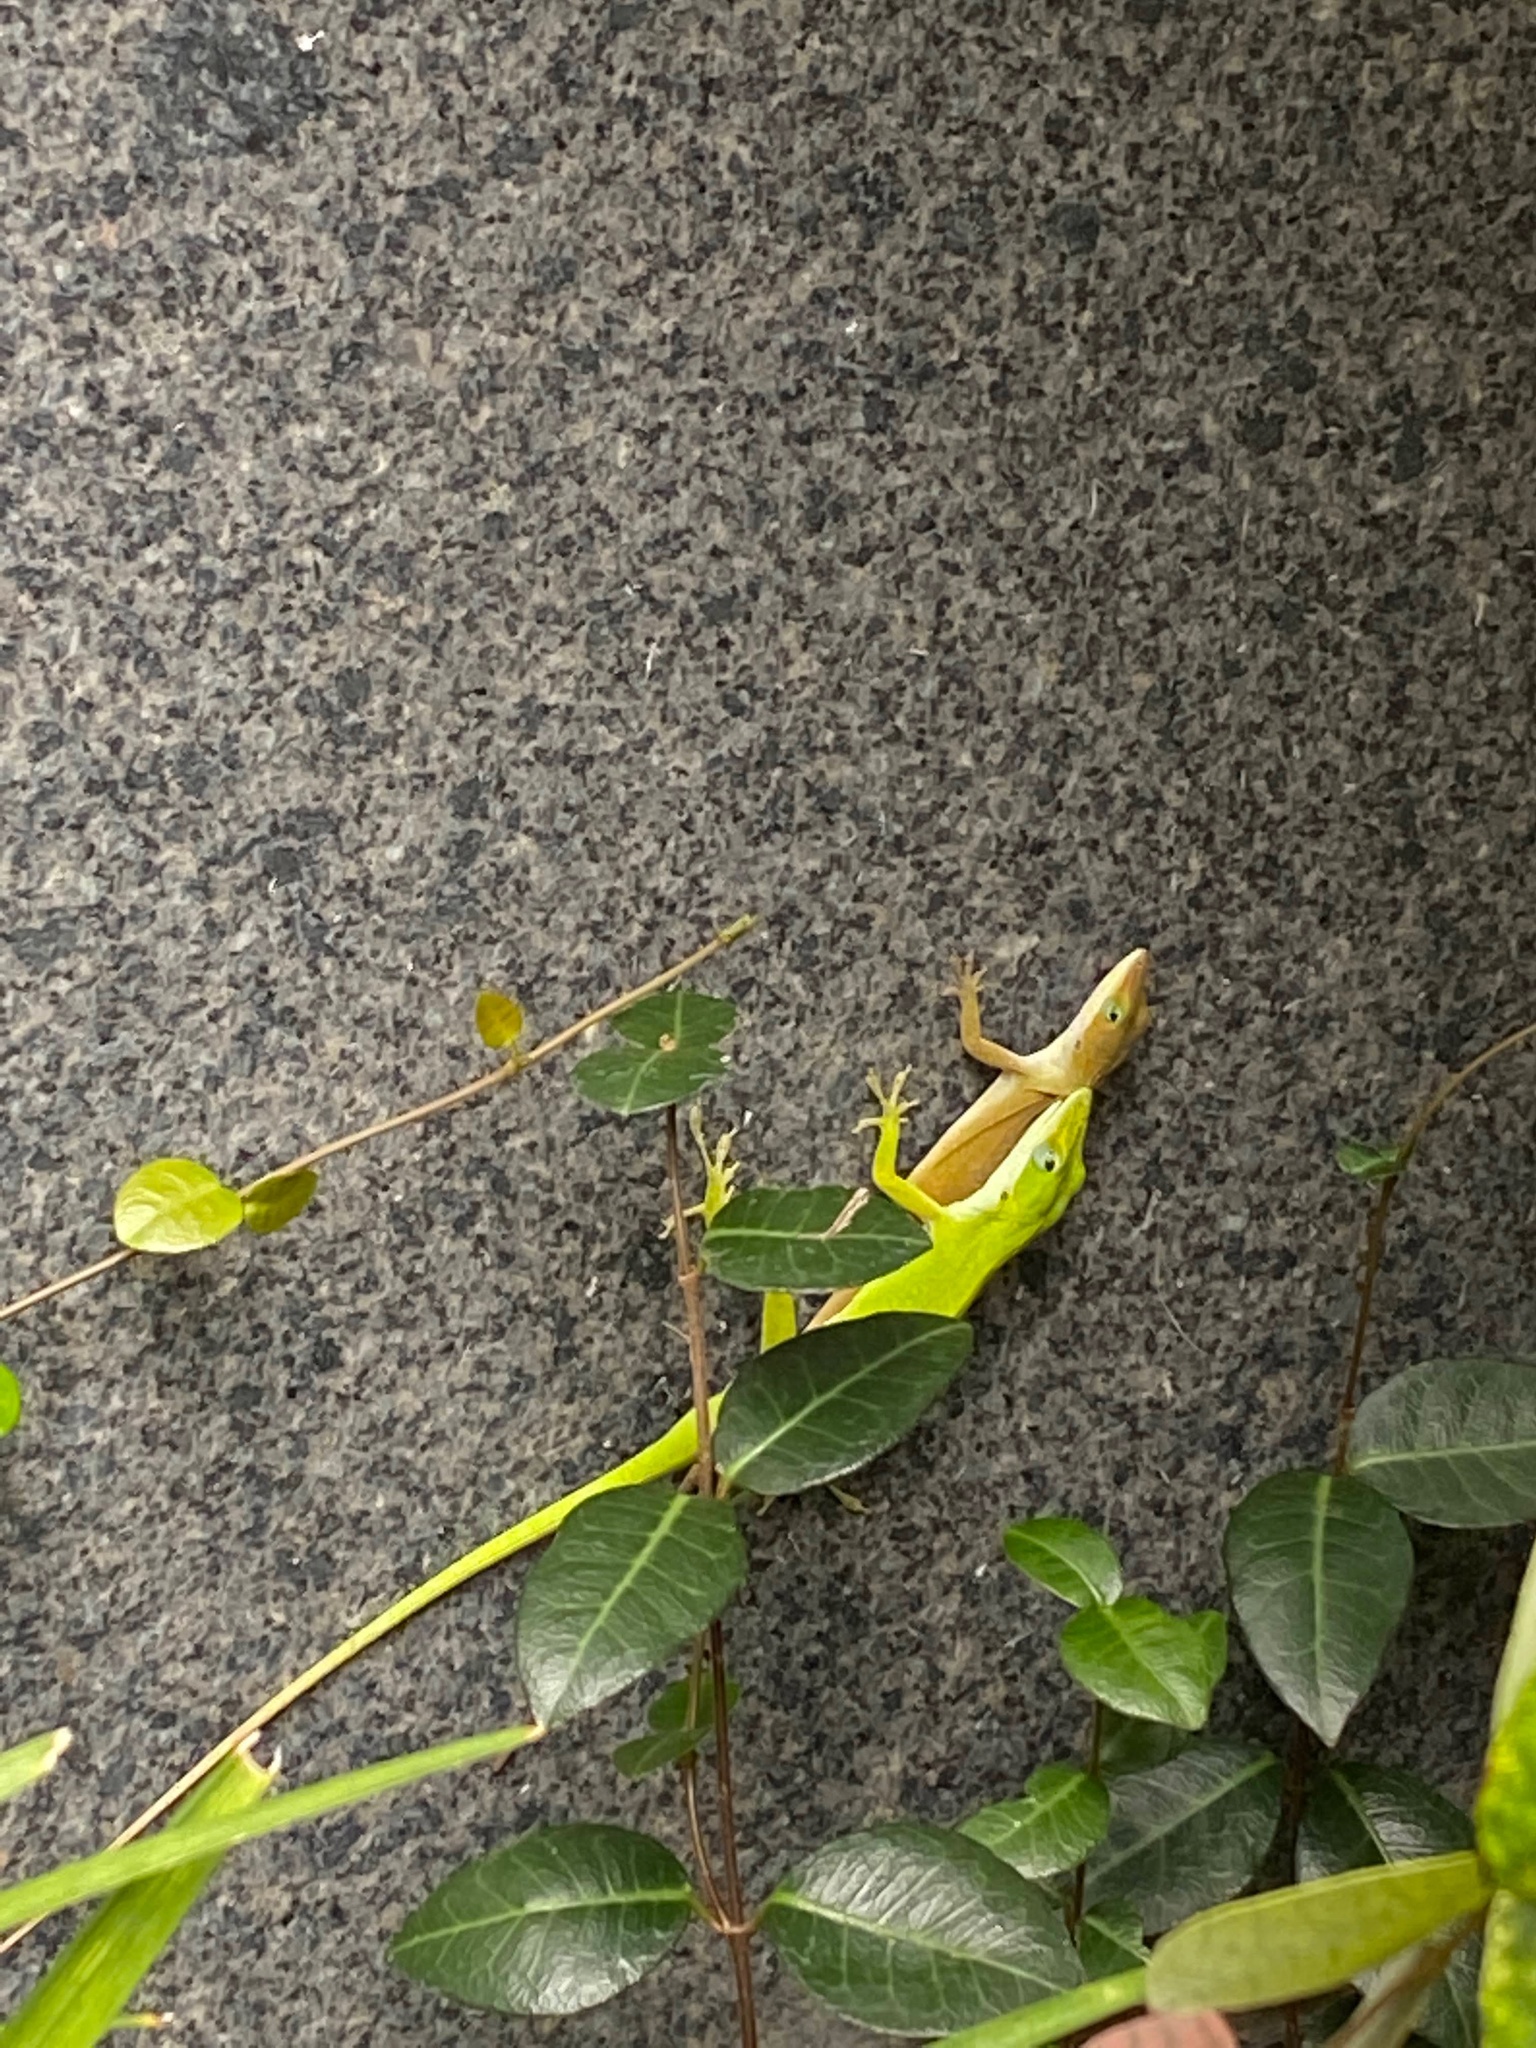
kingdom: Animalia
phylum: Chordata
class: Squamata
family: Dactyloidae
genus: Anolis
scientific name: Anolis carolinensis
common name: Green anole
